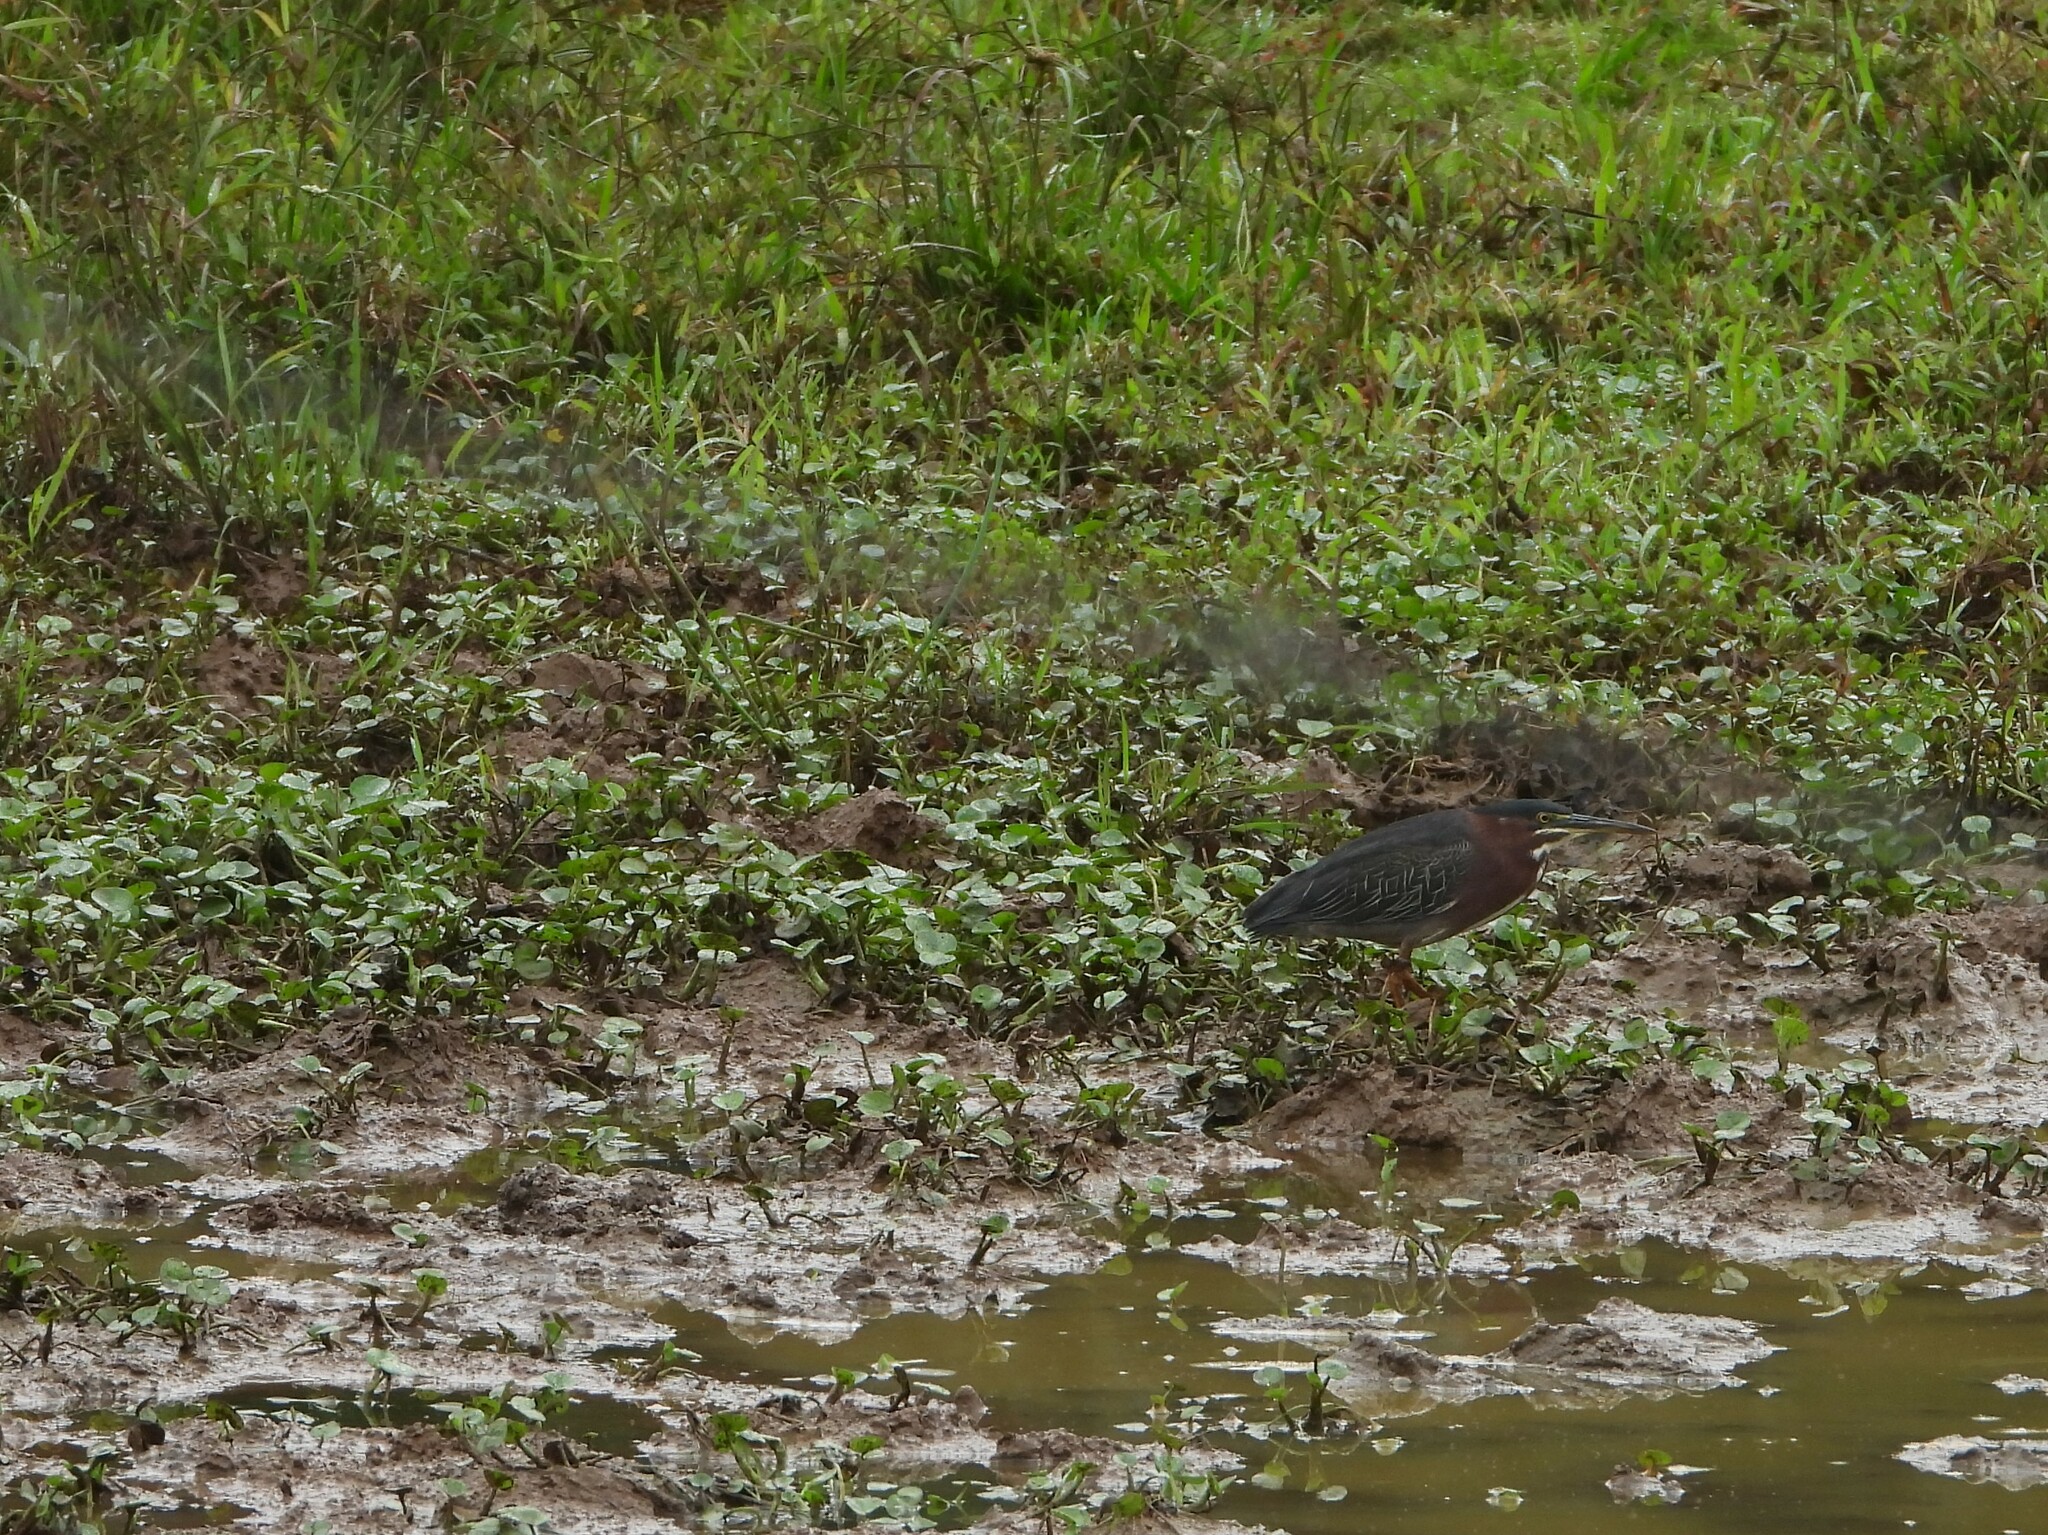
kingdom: Animalia
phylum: Chordata
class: Aves
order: Pelecaniformes
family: Ardeidae
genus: Butorides
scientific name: Butorides virescens
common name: Green heron
